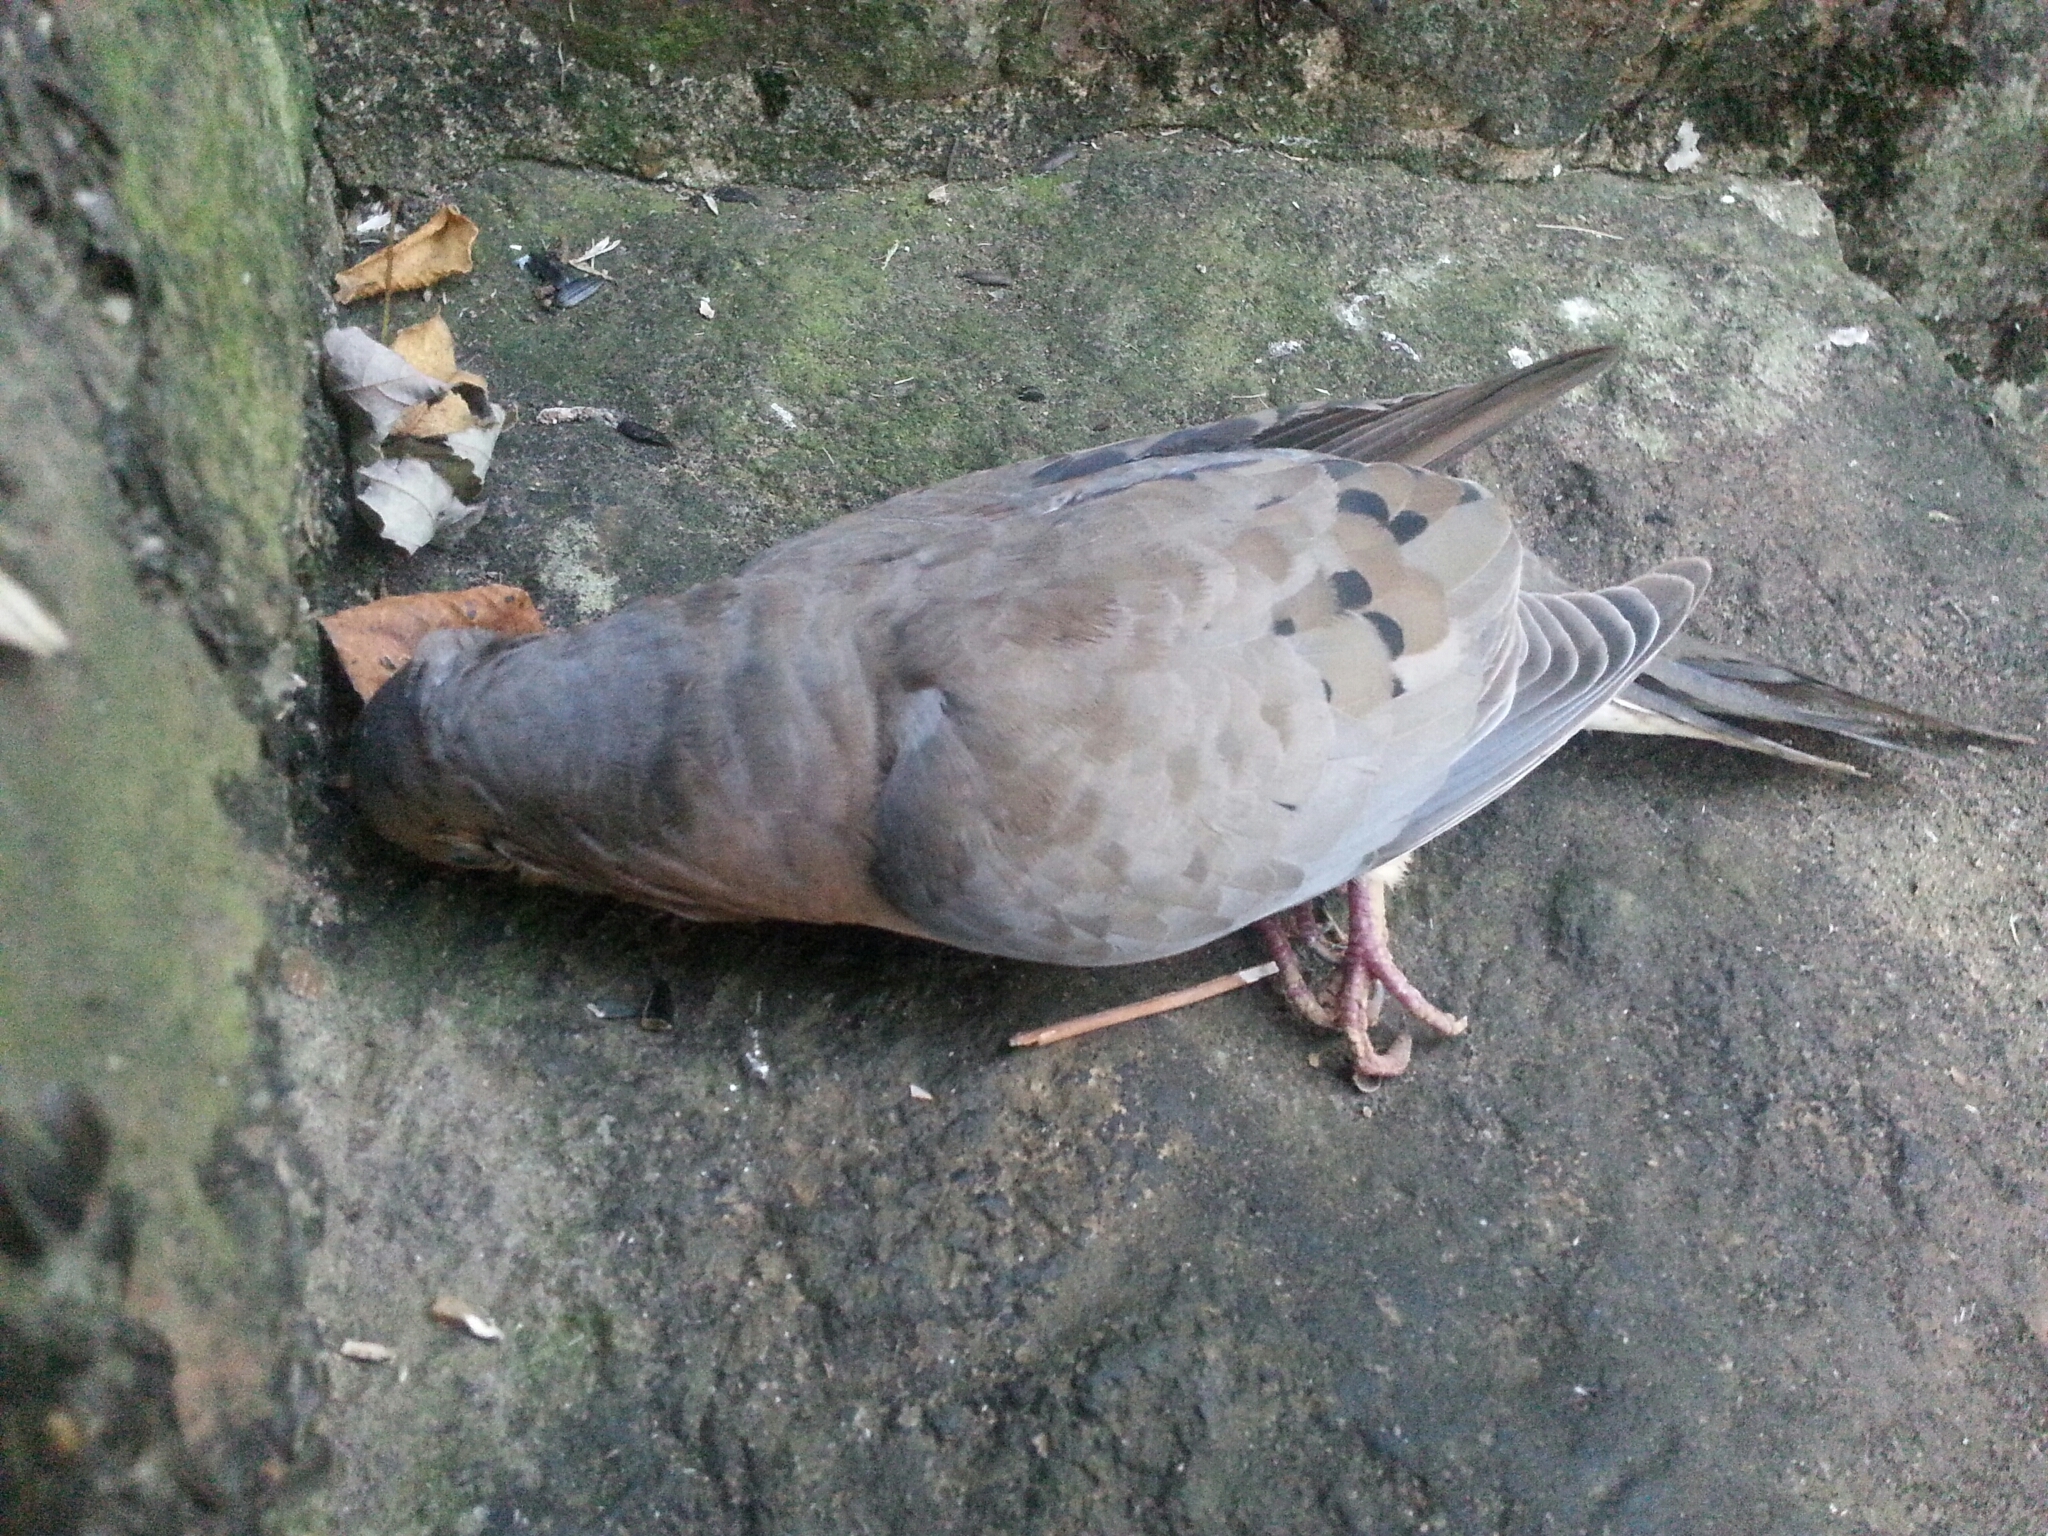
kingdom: Animalia
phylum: Chordata
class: Aves
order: Columbiformes
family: Columbidae
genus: Zenaida
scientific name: Zenaida macroura
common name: Mourning dove
